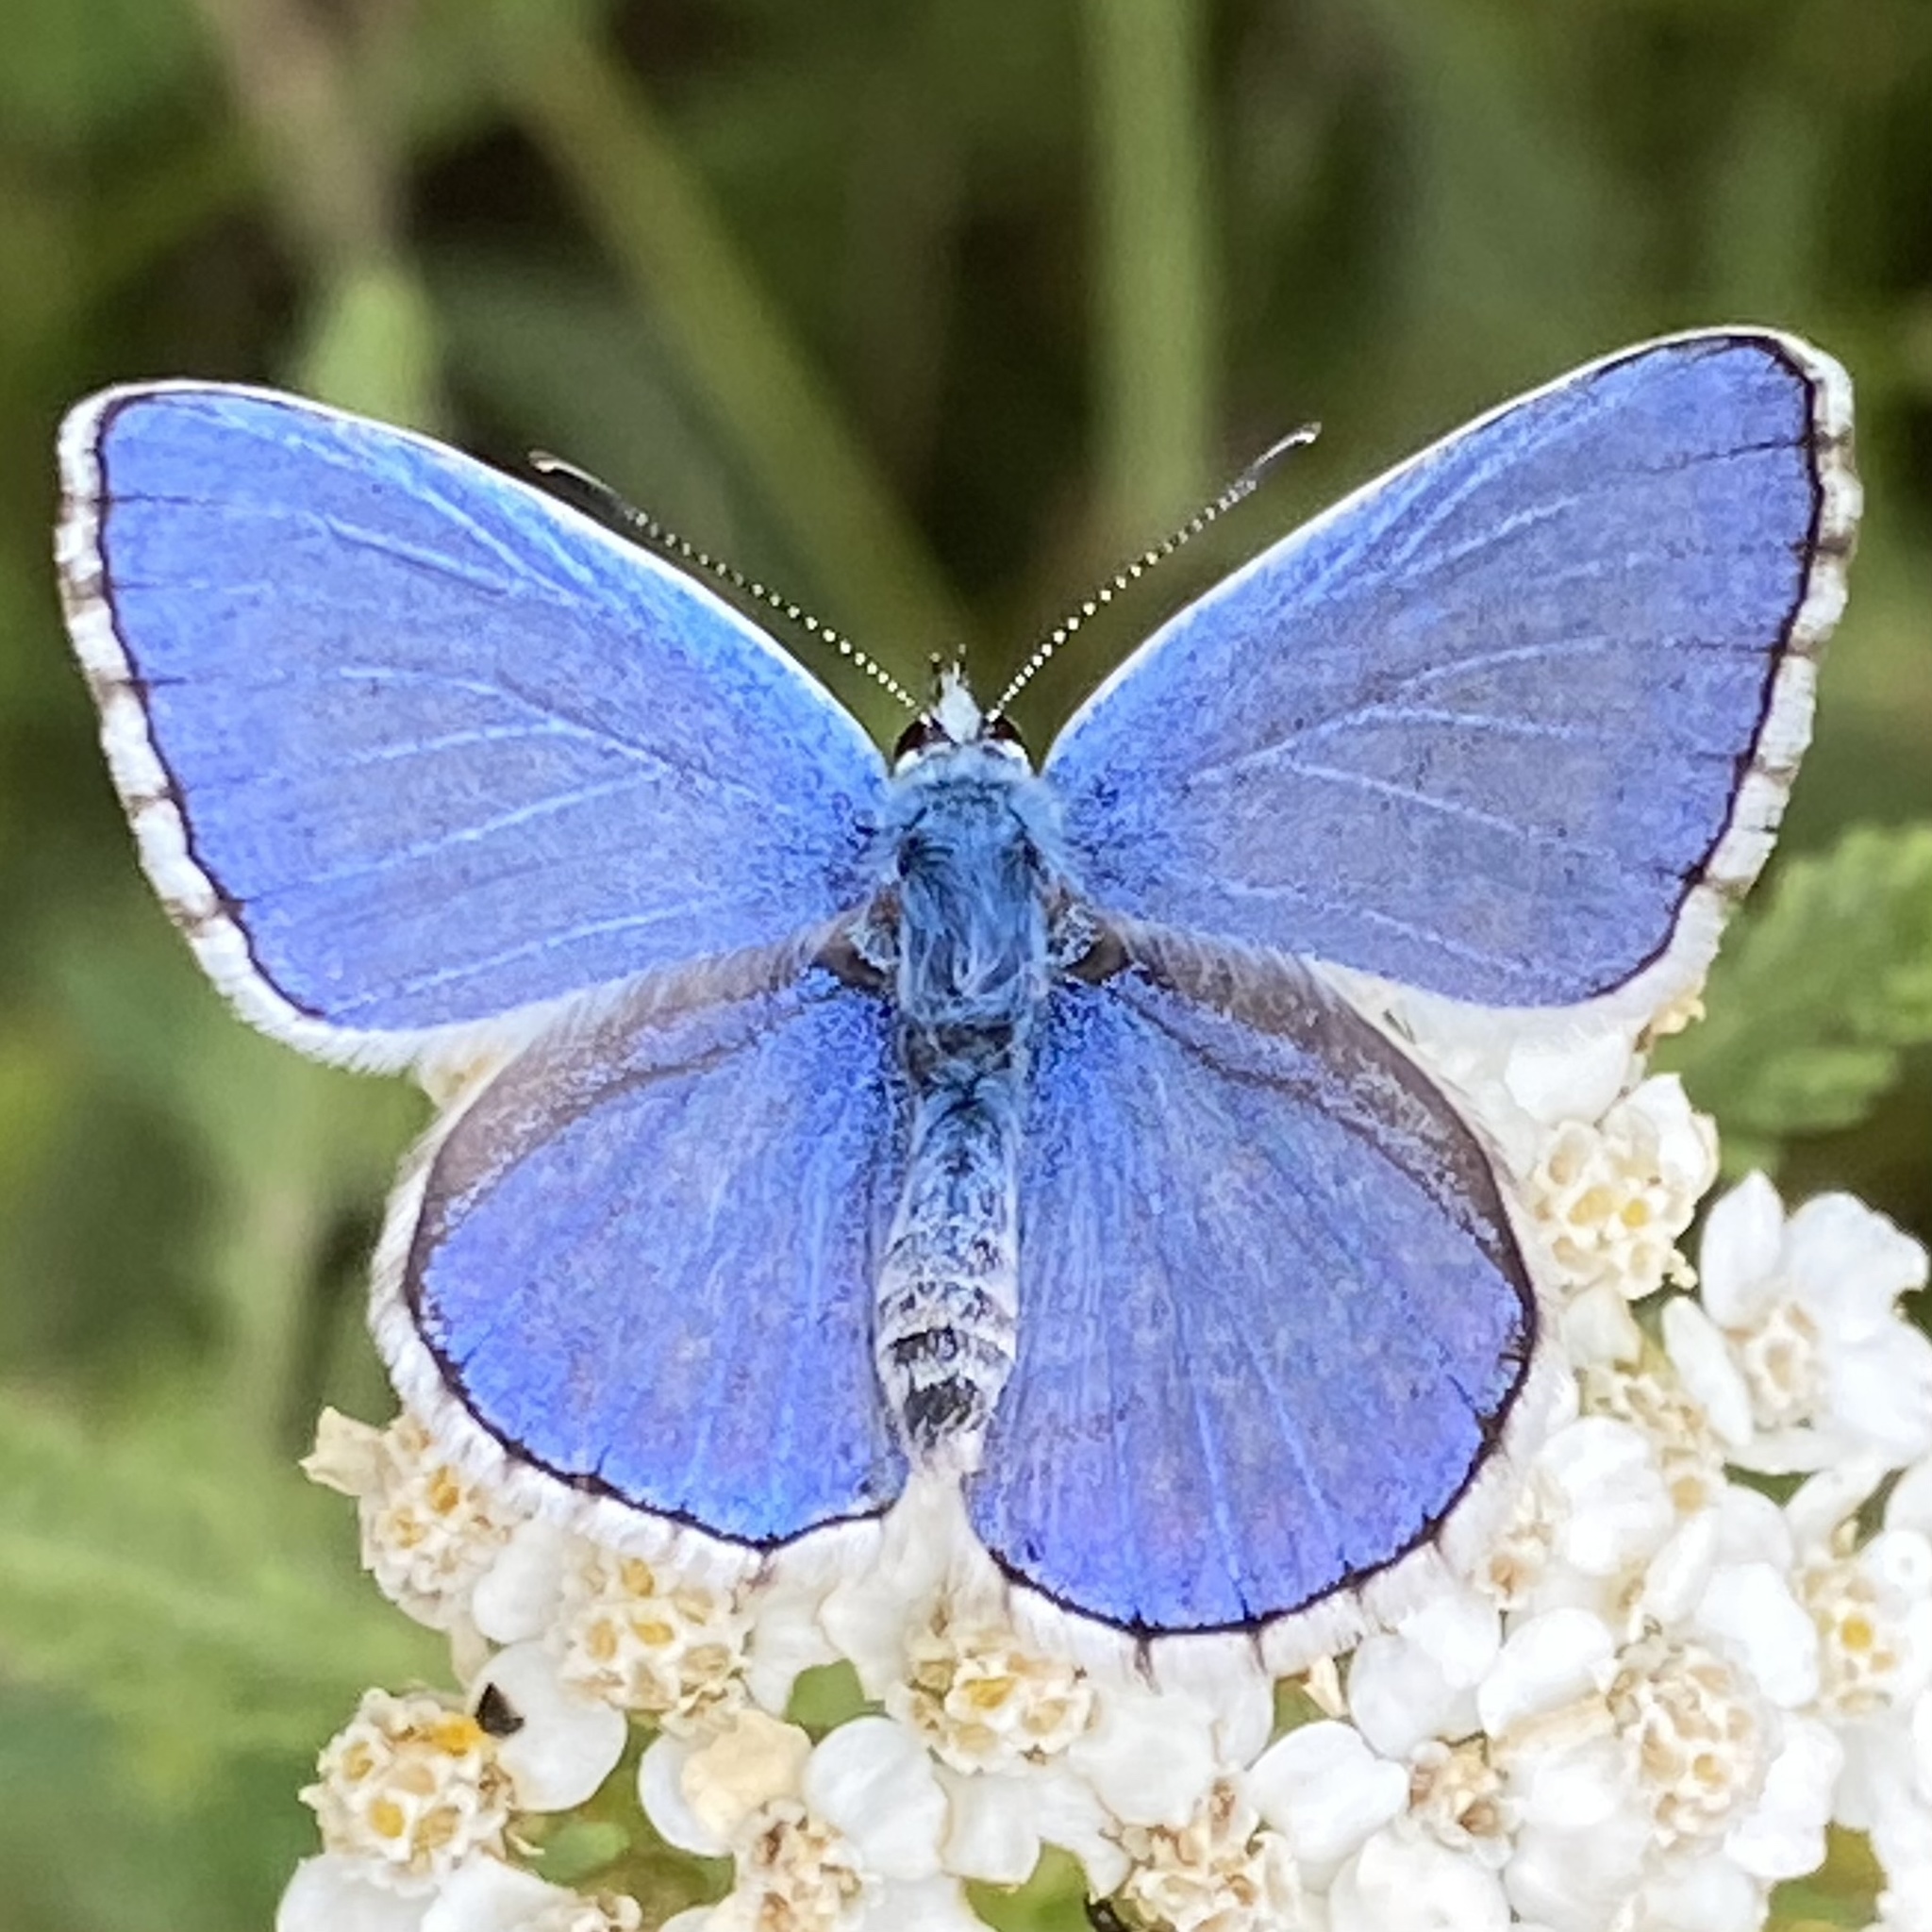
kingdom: Animalia
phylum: Arthropoda
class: Insecta
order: Lepidoptera
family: Lycaenidae
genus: Lysandra
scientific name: Lysandra bellargus
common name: Adonis blue
